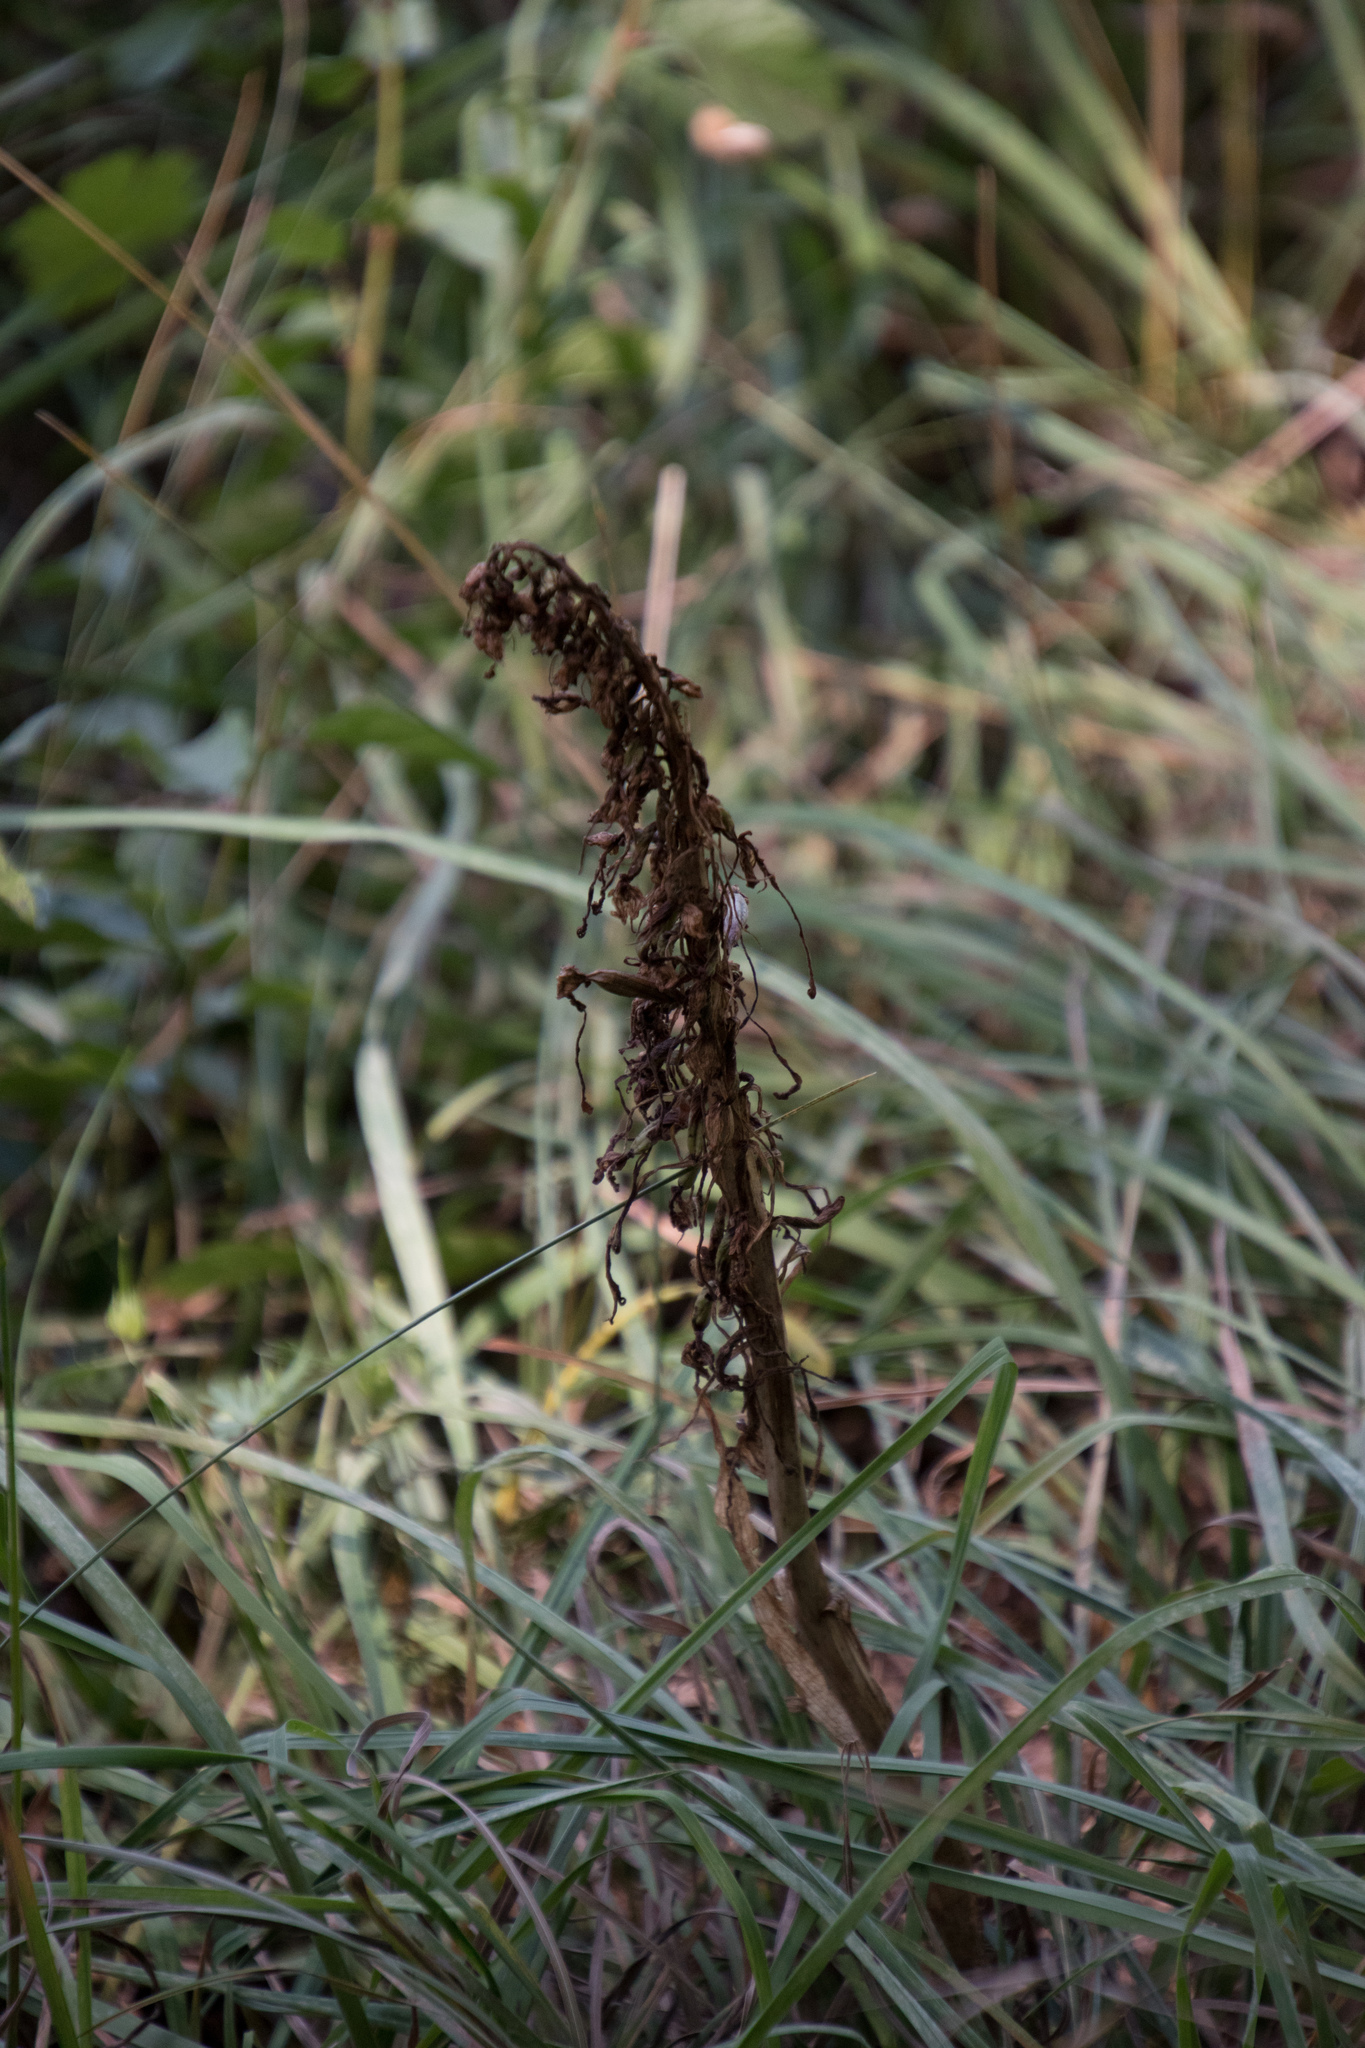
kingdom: Plantae
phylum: Tracheophyta
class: Liliopsida
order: Asparagales
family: Orchidaceae
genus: Himantoglossum
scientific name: Himantoglossum hircinum
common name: Lizard orchid
